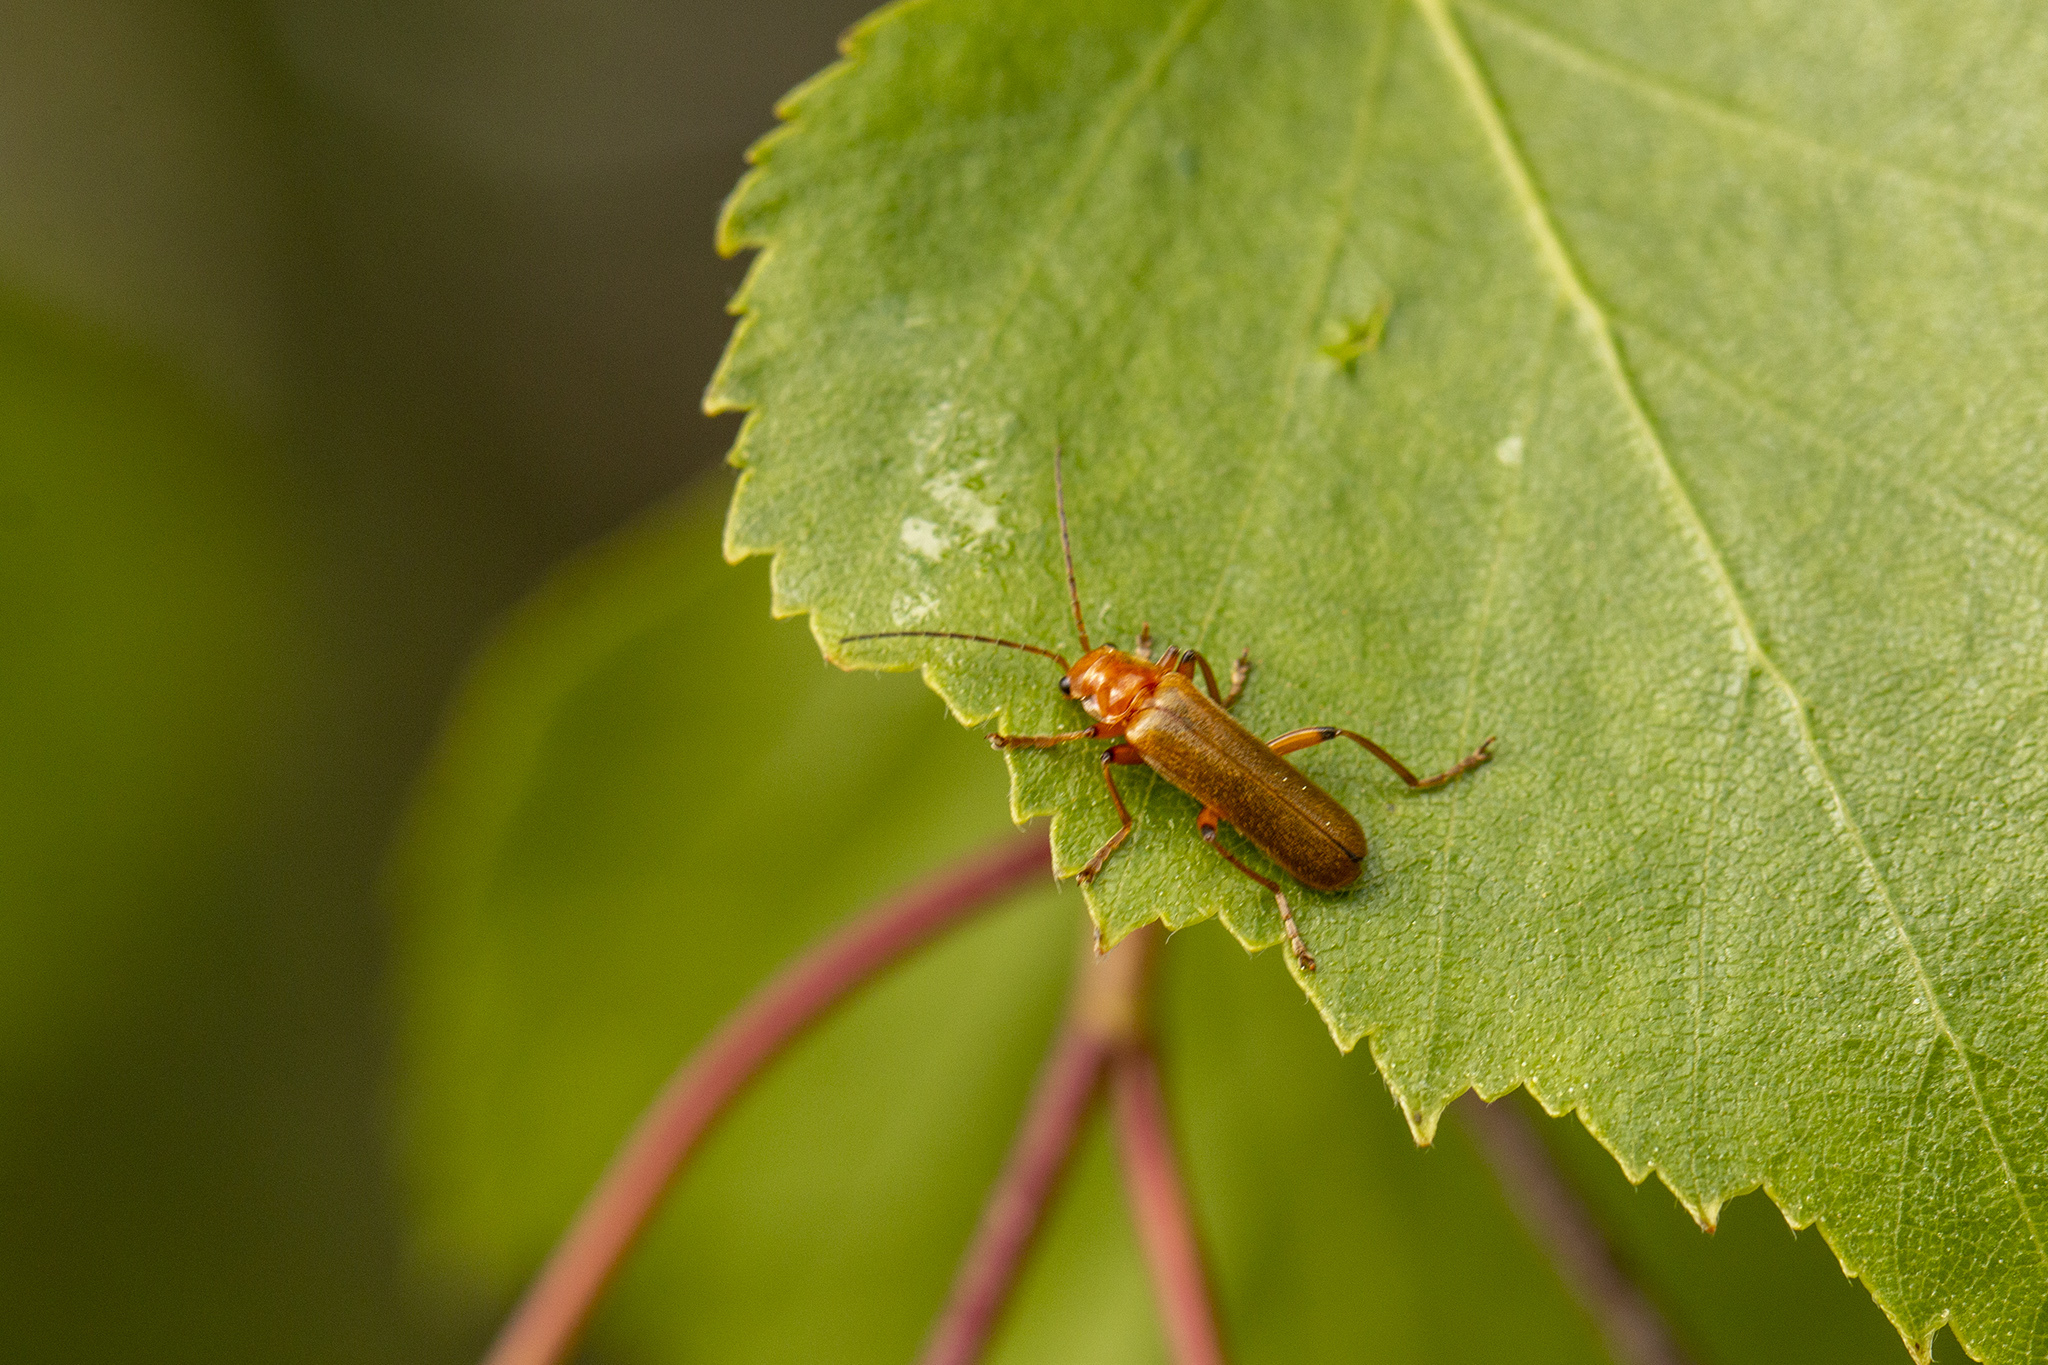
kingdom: Animalia
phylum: Arthropoda
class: Insecta
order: Coleoptera
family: Cantharidae
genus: Cantharis
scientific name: Cantharis cryptica
